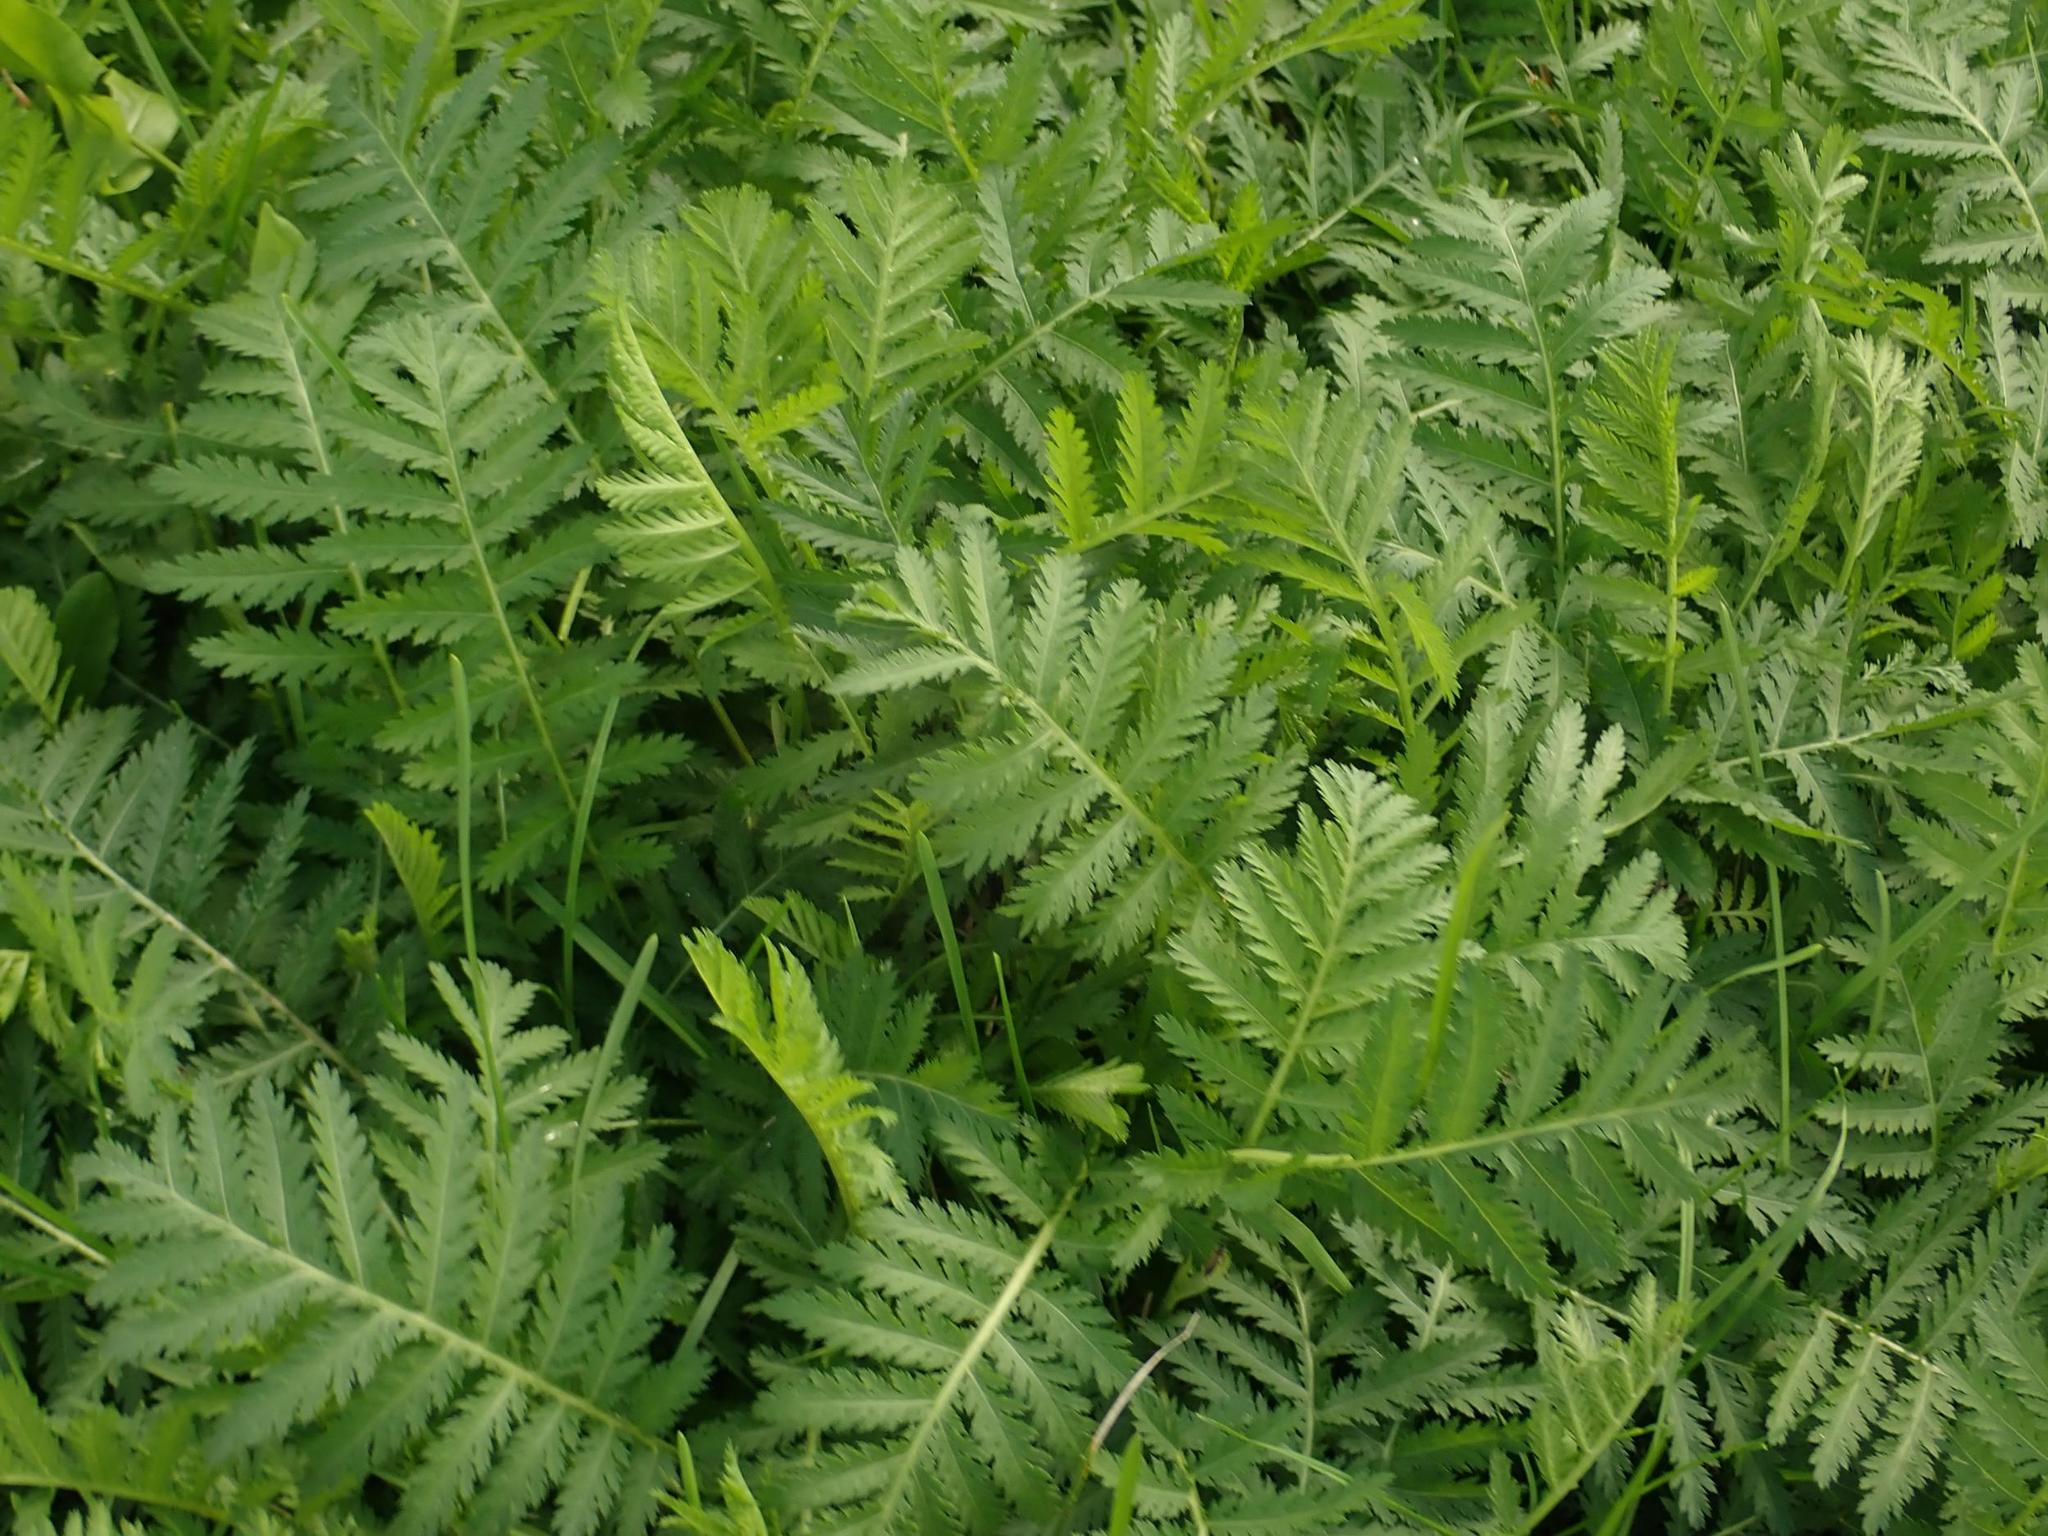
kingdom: Plantae
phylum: Tracheophyta
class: Magnoliopsida
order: Asterales
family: Asteraceae
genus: Tanacetum
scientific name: Tanacetum vulgare
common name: Common tansy
